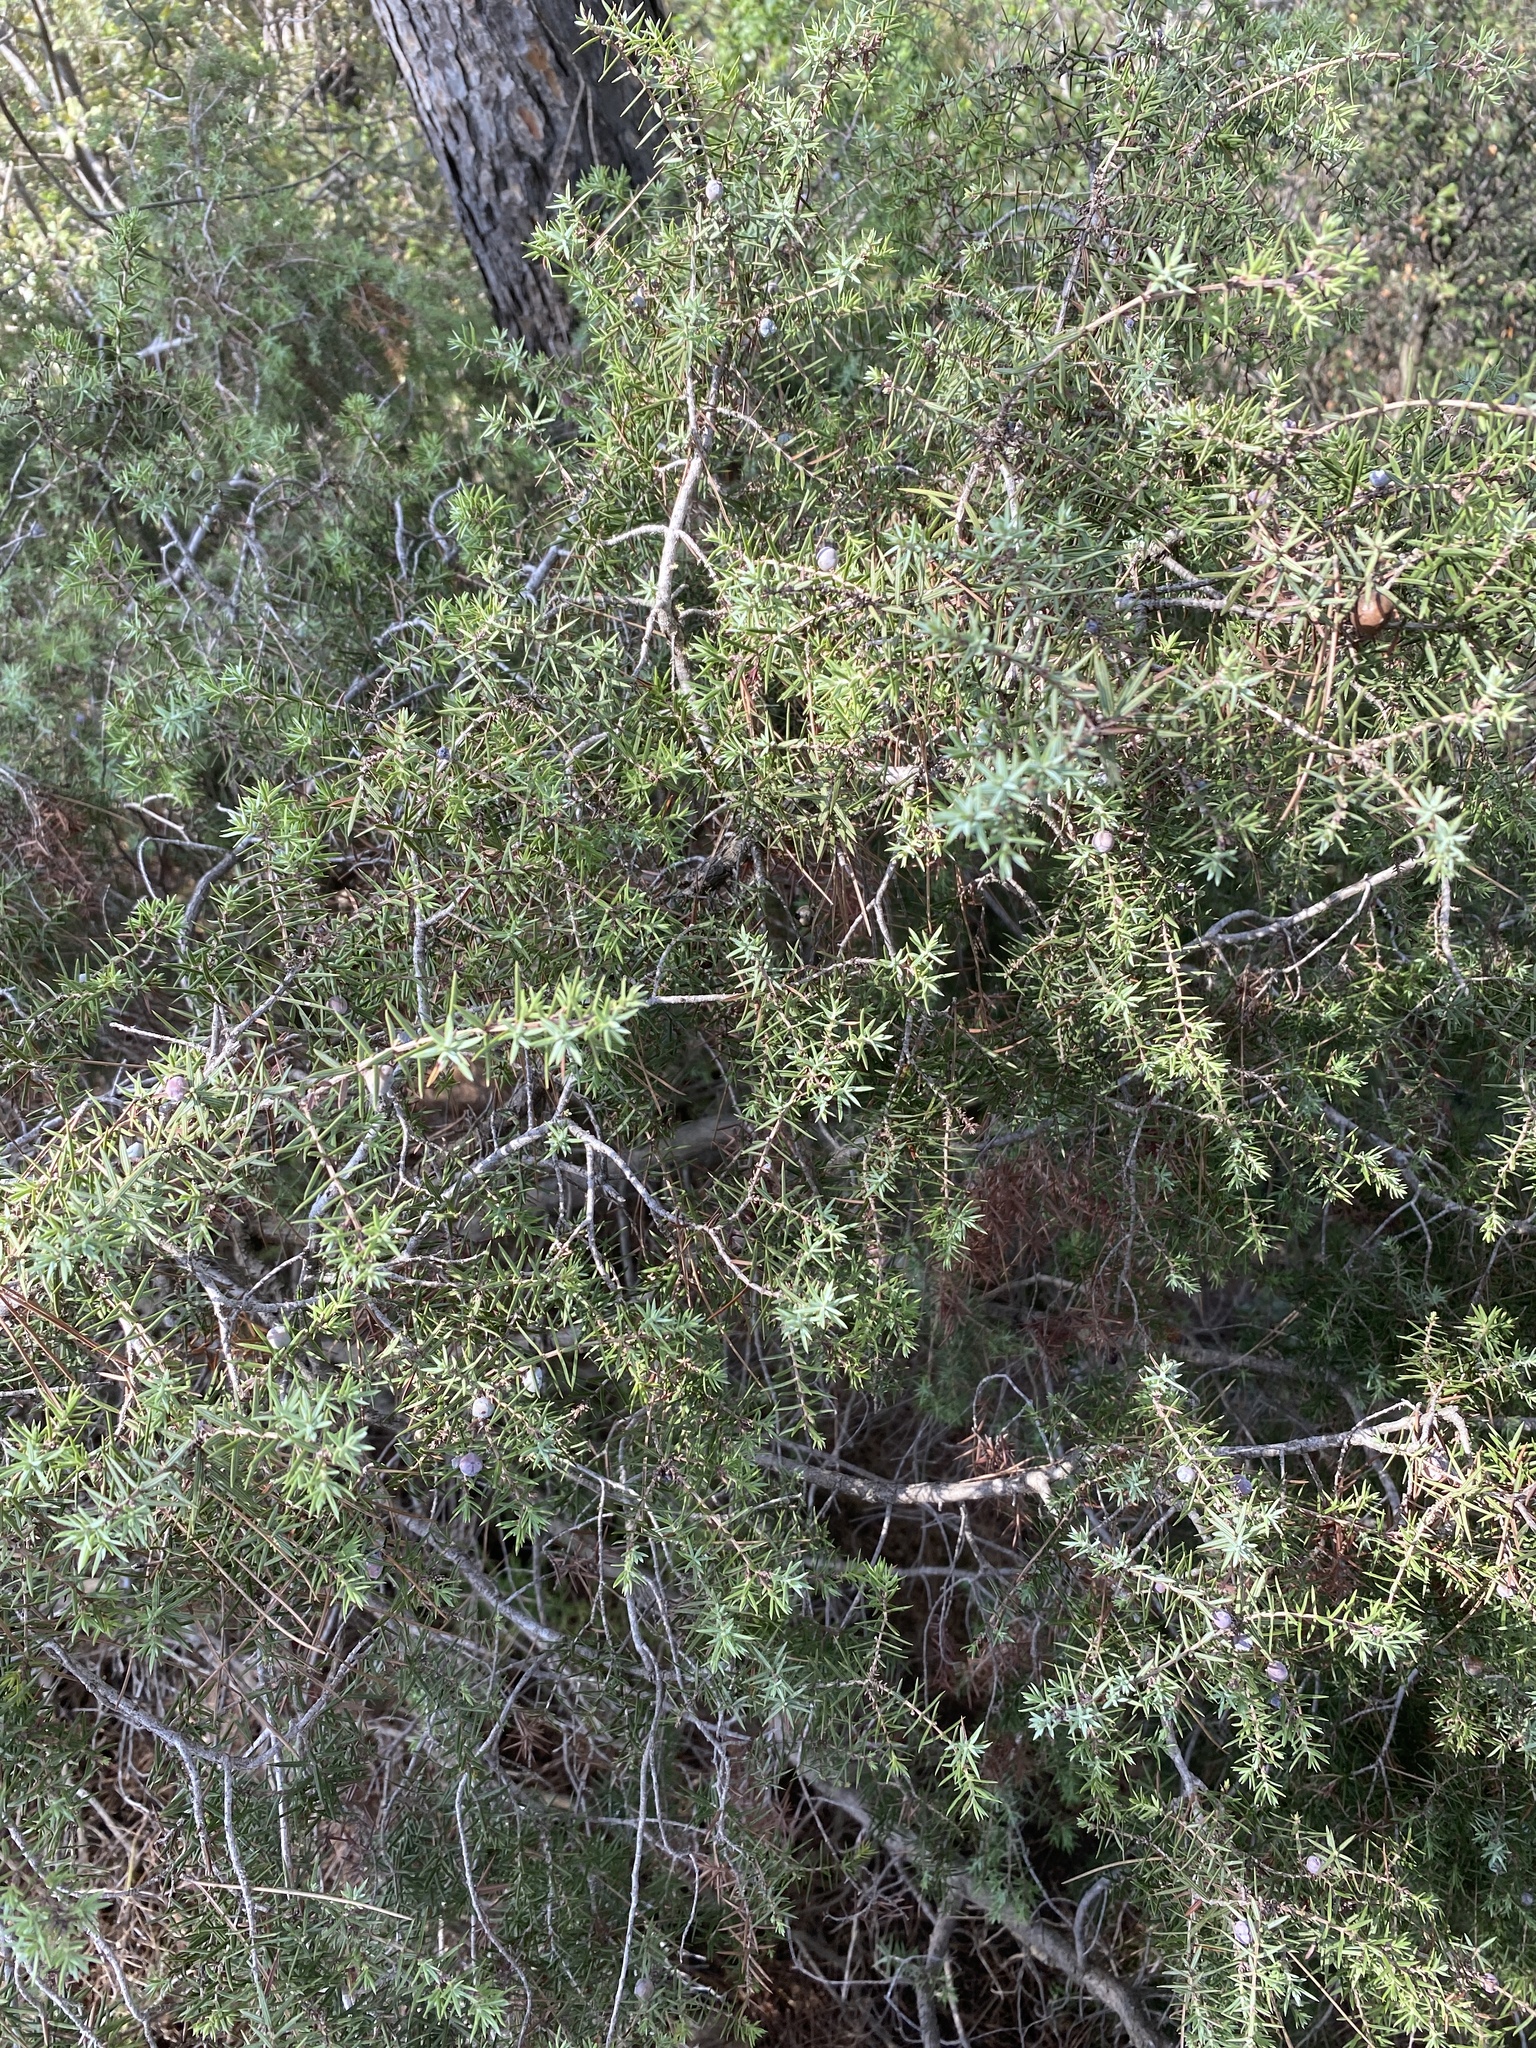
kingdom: Plantae
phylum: Tracheophyta
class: Pinopsida
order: Pinales
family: Cupressaceae
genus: Juniperus
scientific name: Juniperus oxycedrus
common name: Prickly juniper
